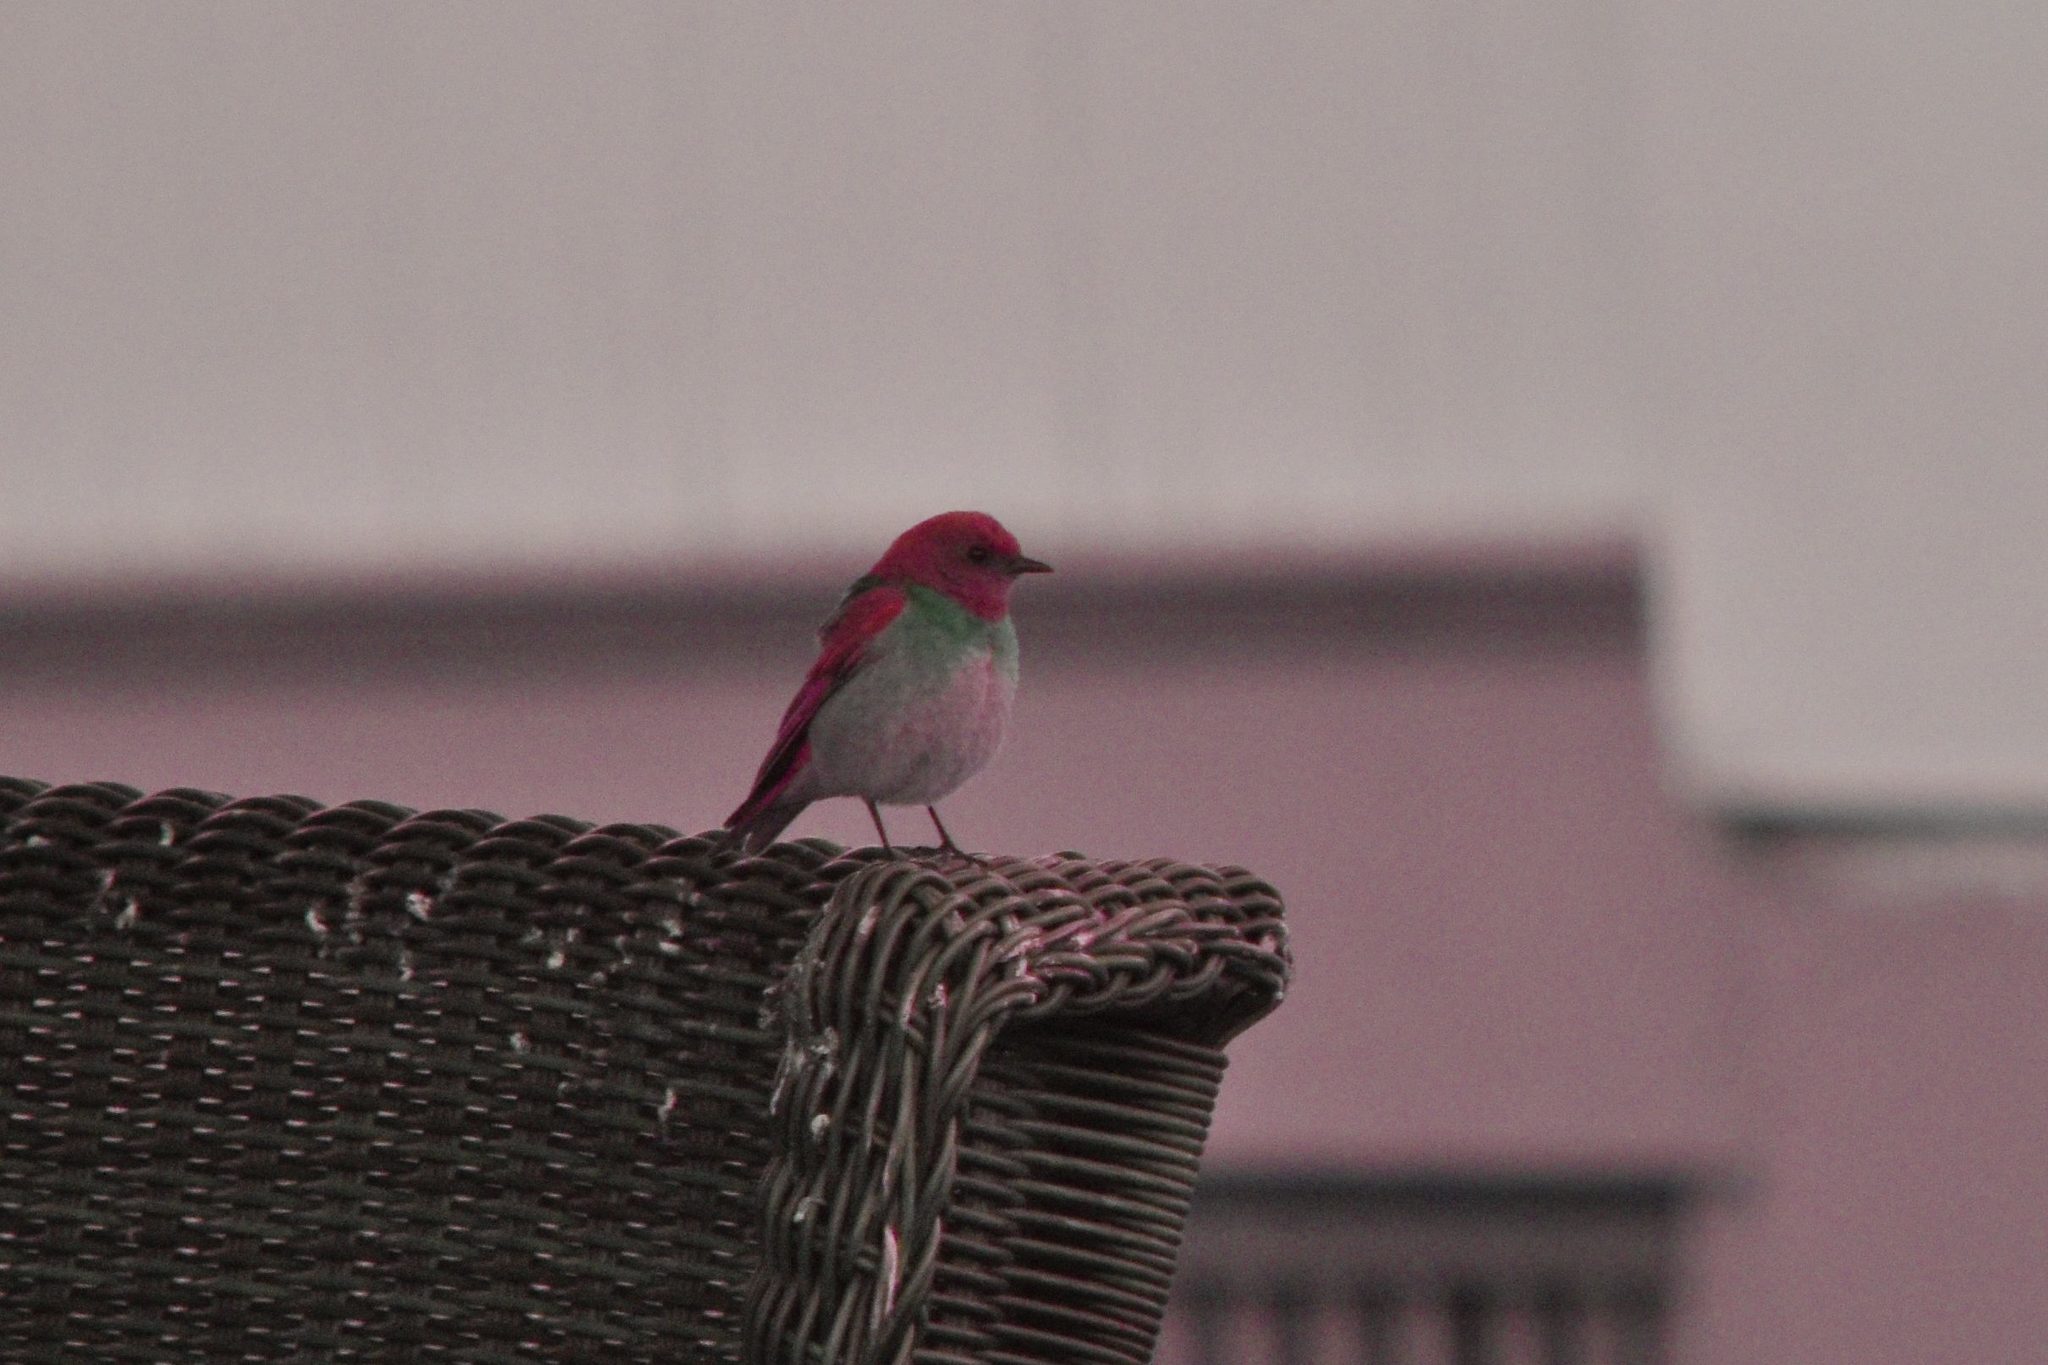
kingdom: Animalia
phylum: Chordata
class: Aves
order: Passeriformes
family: Turdidae
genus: Sialia
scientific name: Sialia mexicana
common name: Western bluebird
